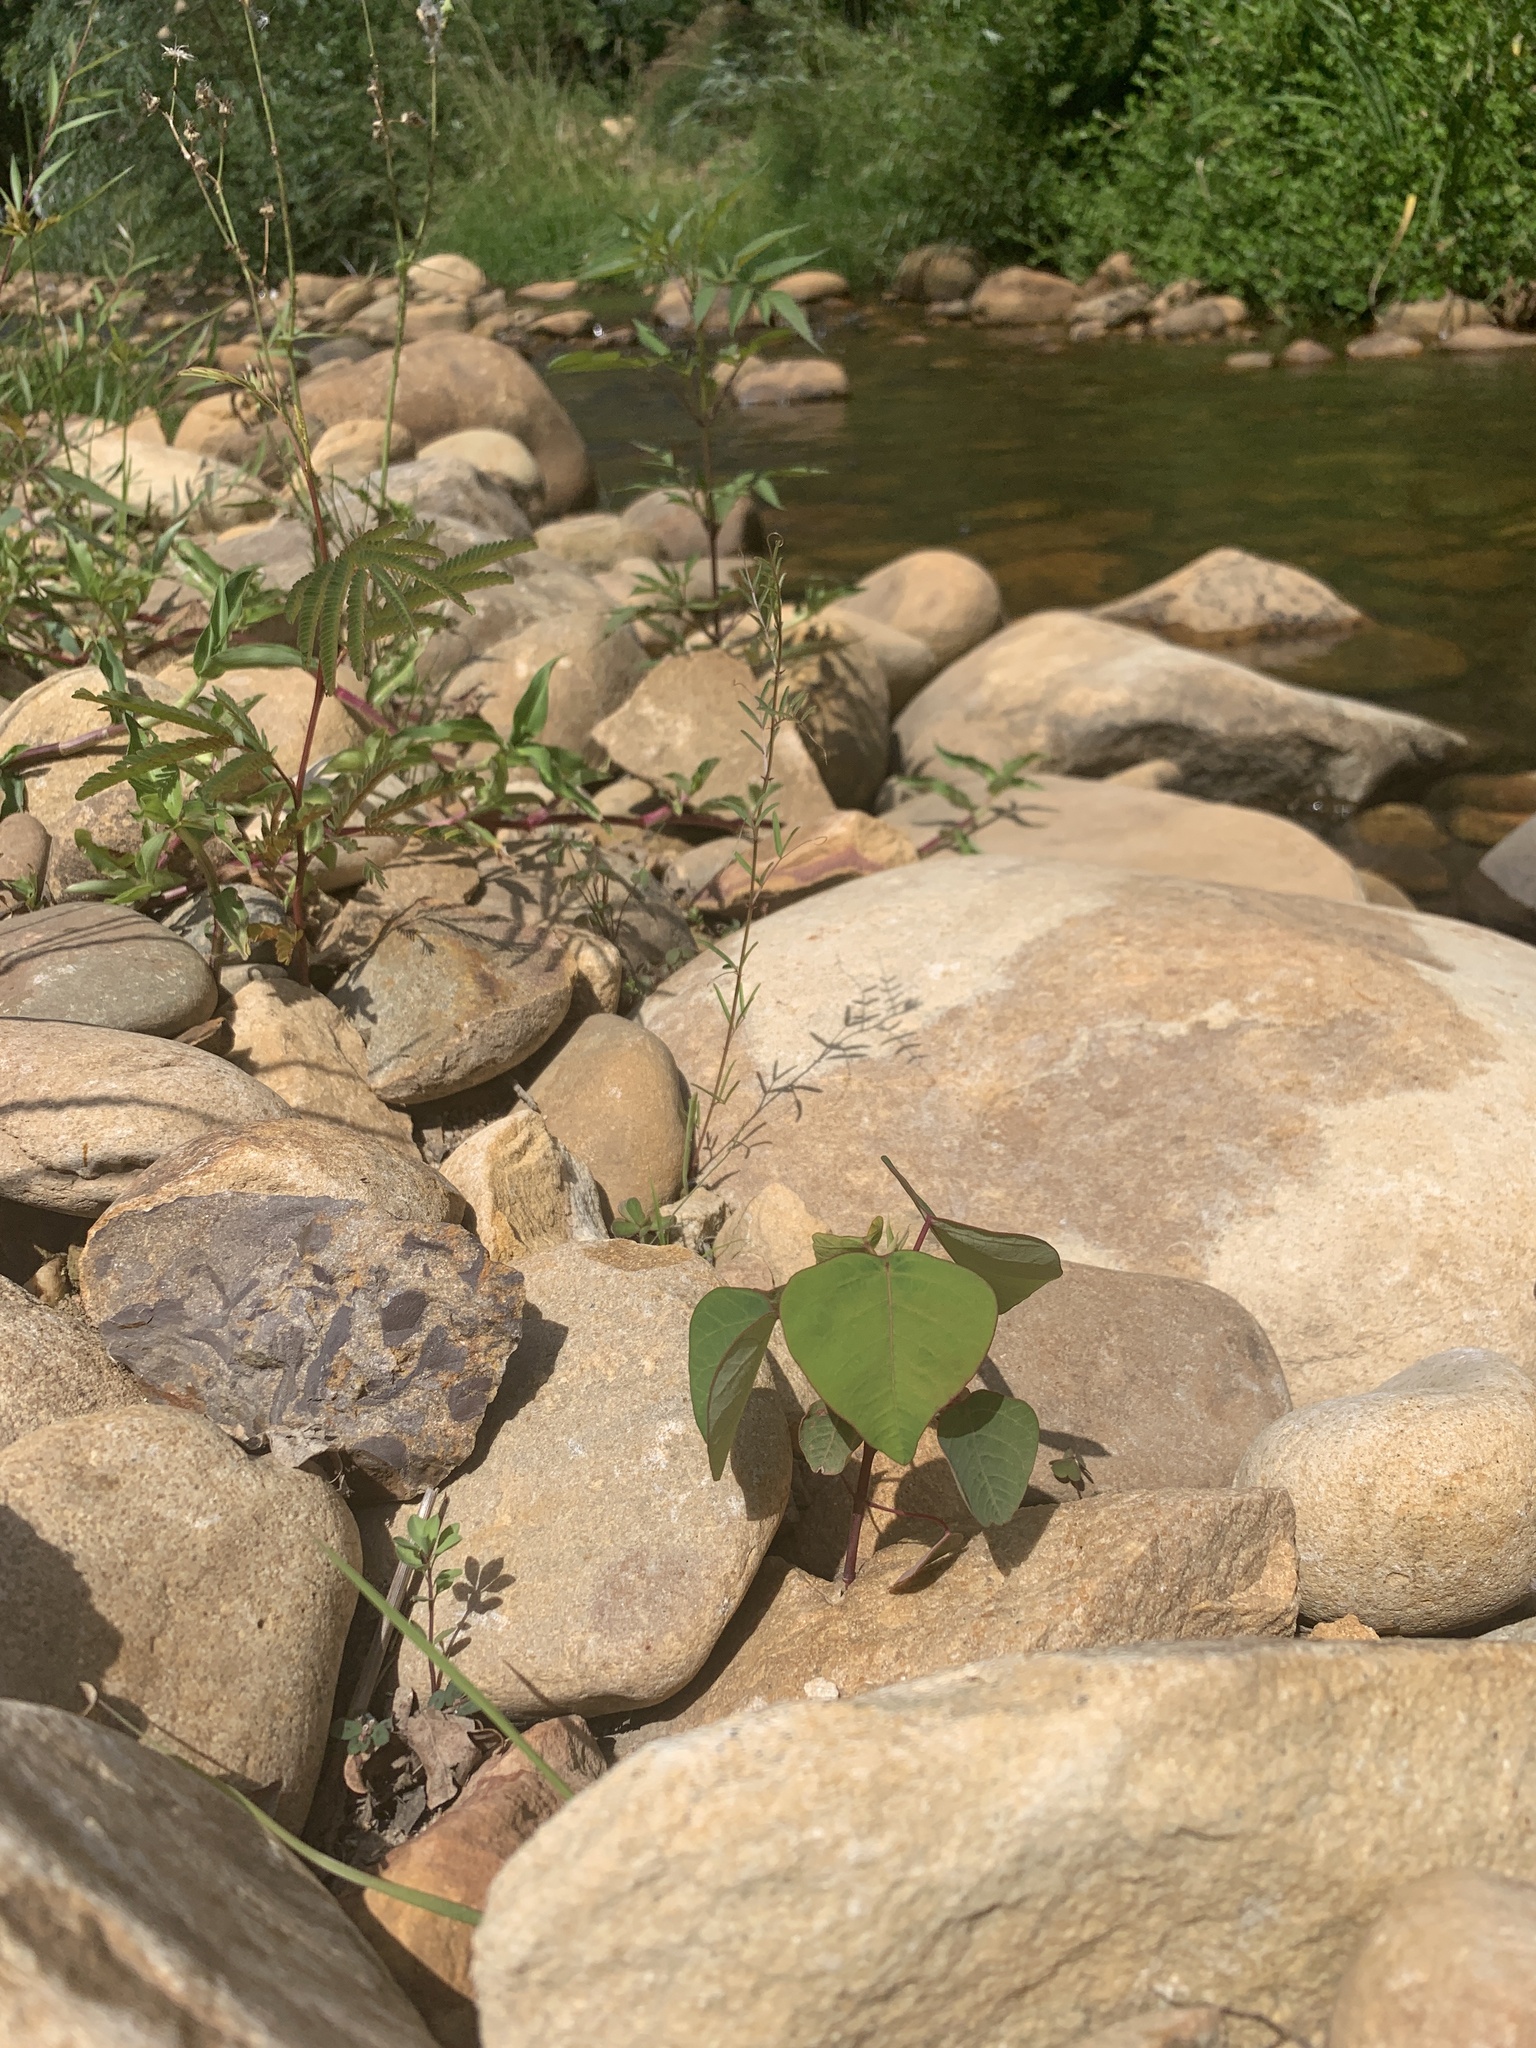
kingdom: Plantae
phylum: Tracheophyta
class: Magnoliopsida
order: Malpighiales
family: Euphorbiaceae
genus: Homalanthus
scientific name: Homalanthus populifolius
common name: Queensland poplar
